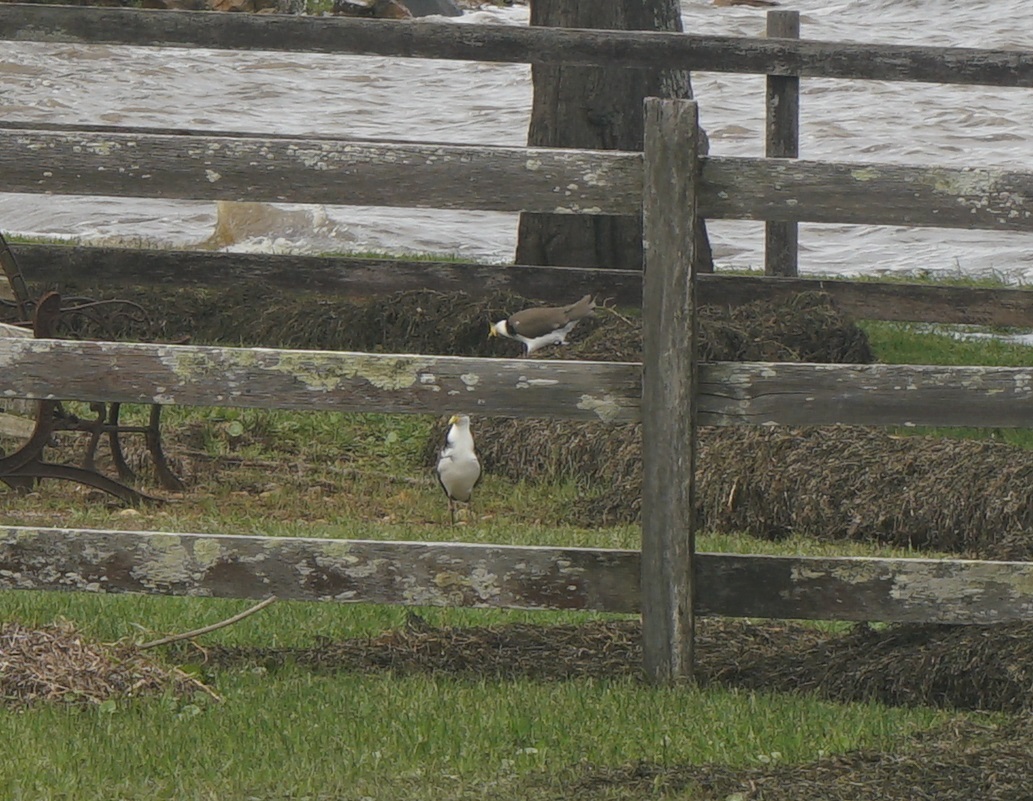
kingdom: Animalia
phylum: Chordata
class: Aves
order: Charadriiformes
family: Charadriidae
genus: Vanellus
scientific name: Vanellus miles
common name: Masked lapwing
